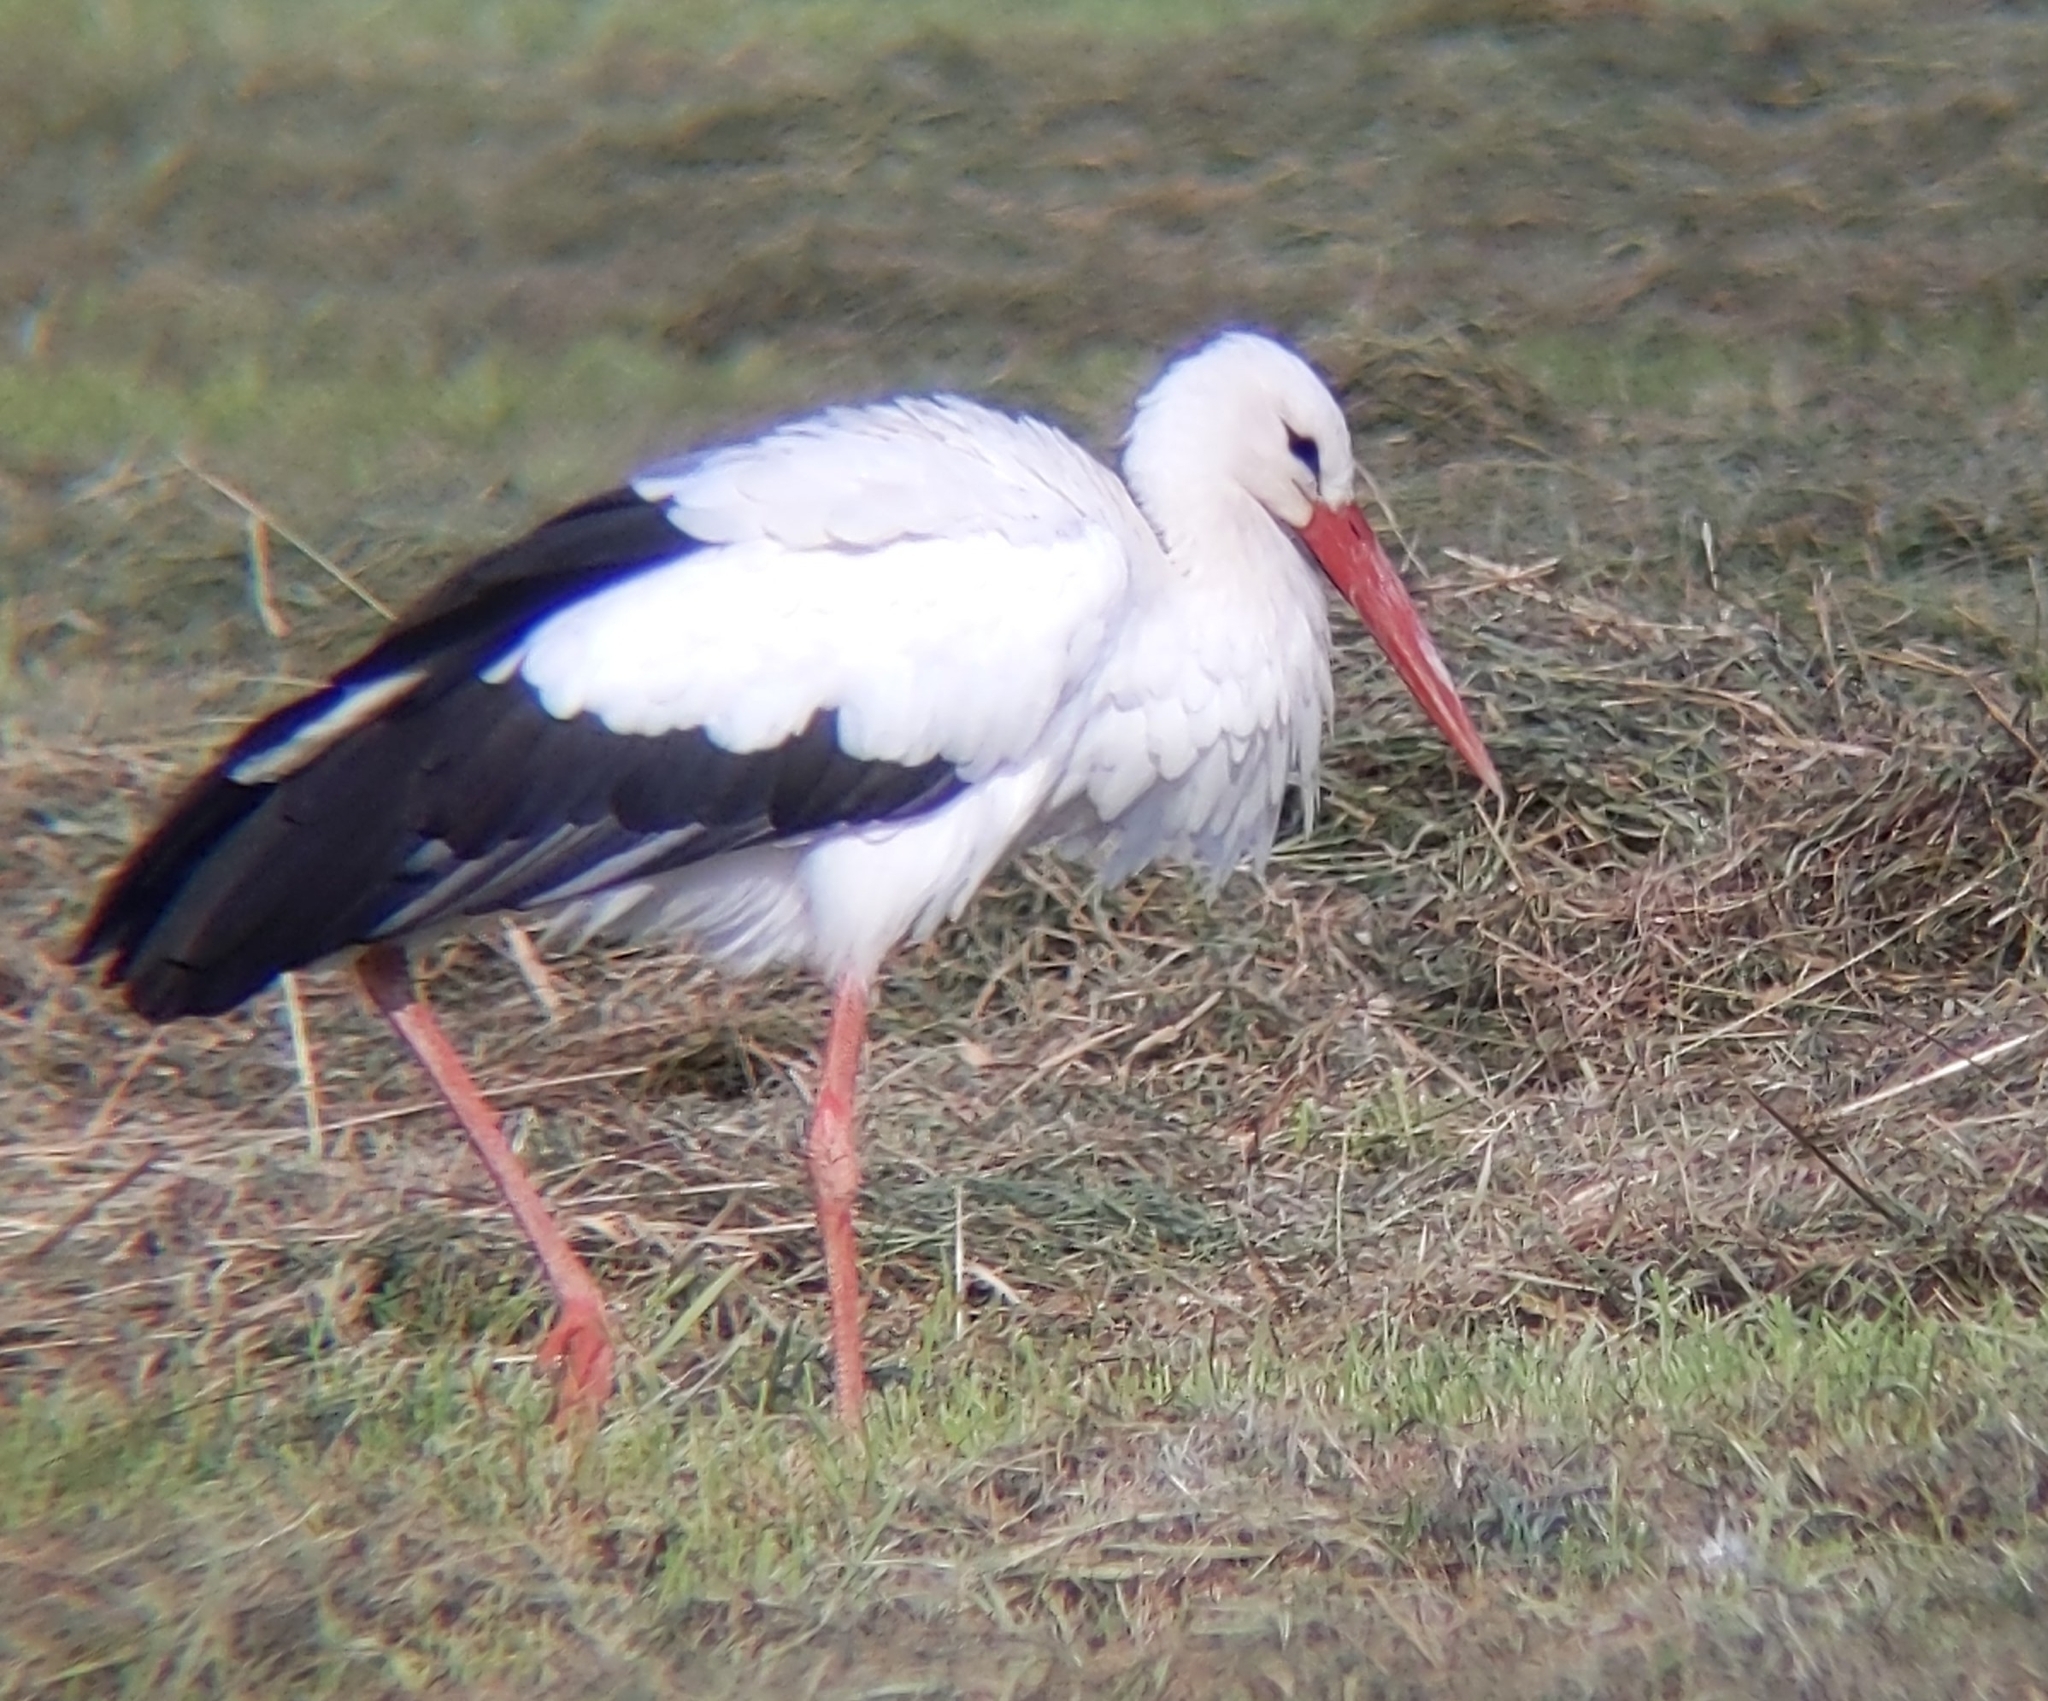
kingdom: Animalia
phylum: Chordata
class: Aves
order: Ciconiiformes
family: Ciconiidae
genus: Ciconia
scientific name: Ciconia ciconia
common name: White stork
